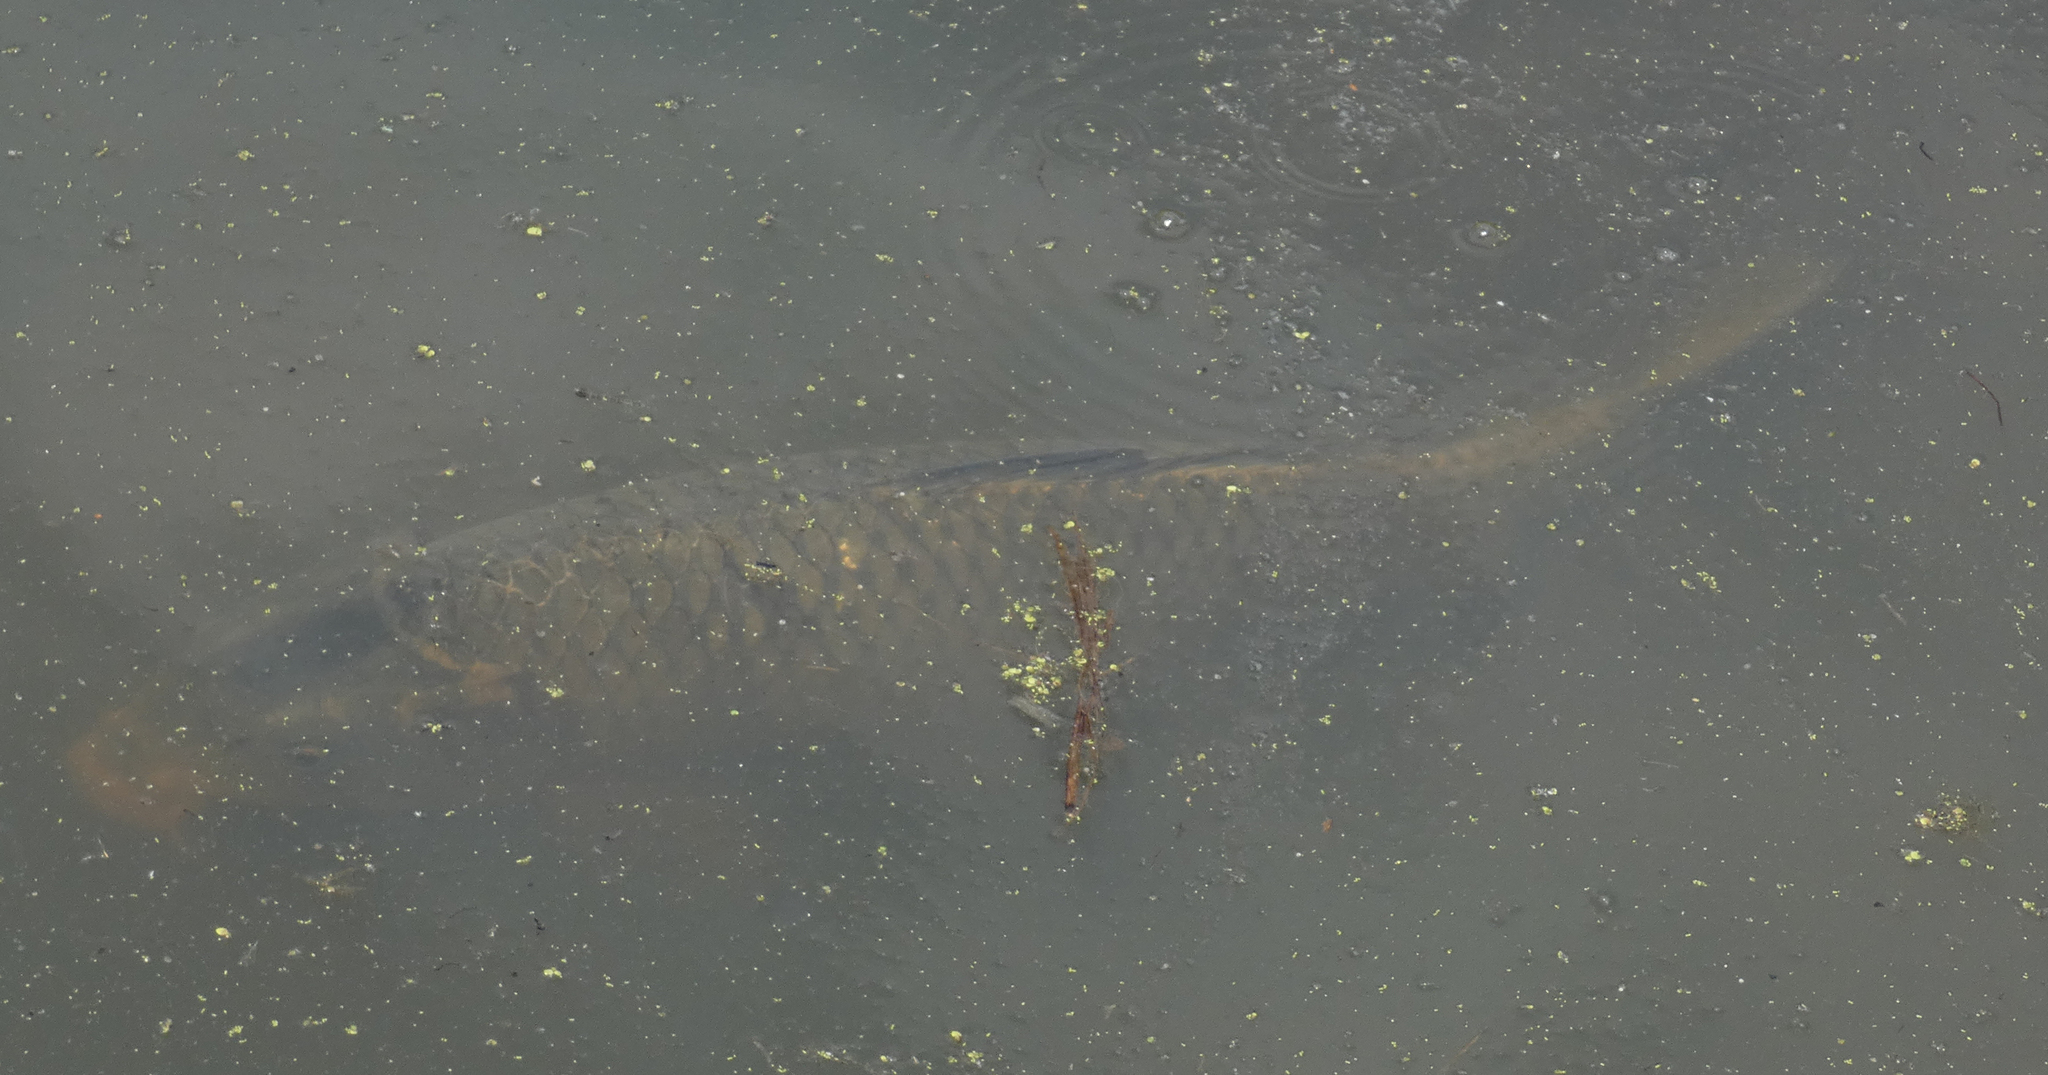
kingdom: Animalia
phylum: Chordata
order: Cypriniformes
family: Cyprinidae
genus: Cyprinus
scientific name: Cyprinus carpio
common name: Common carp
